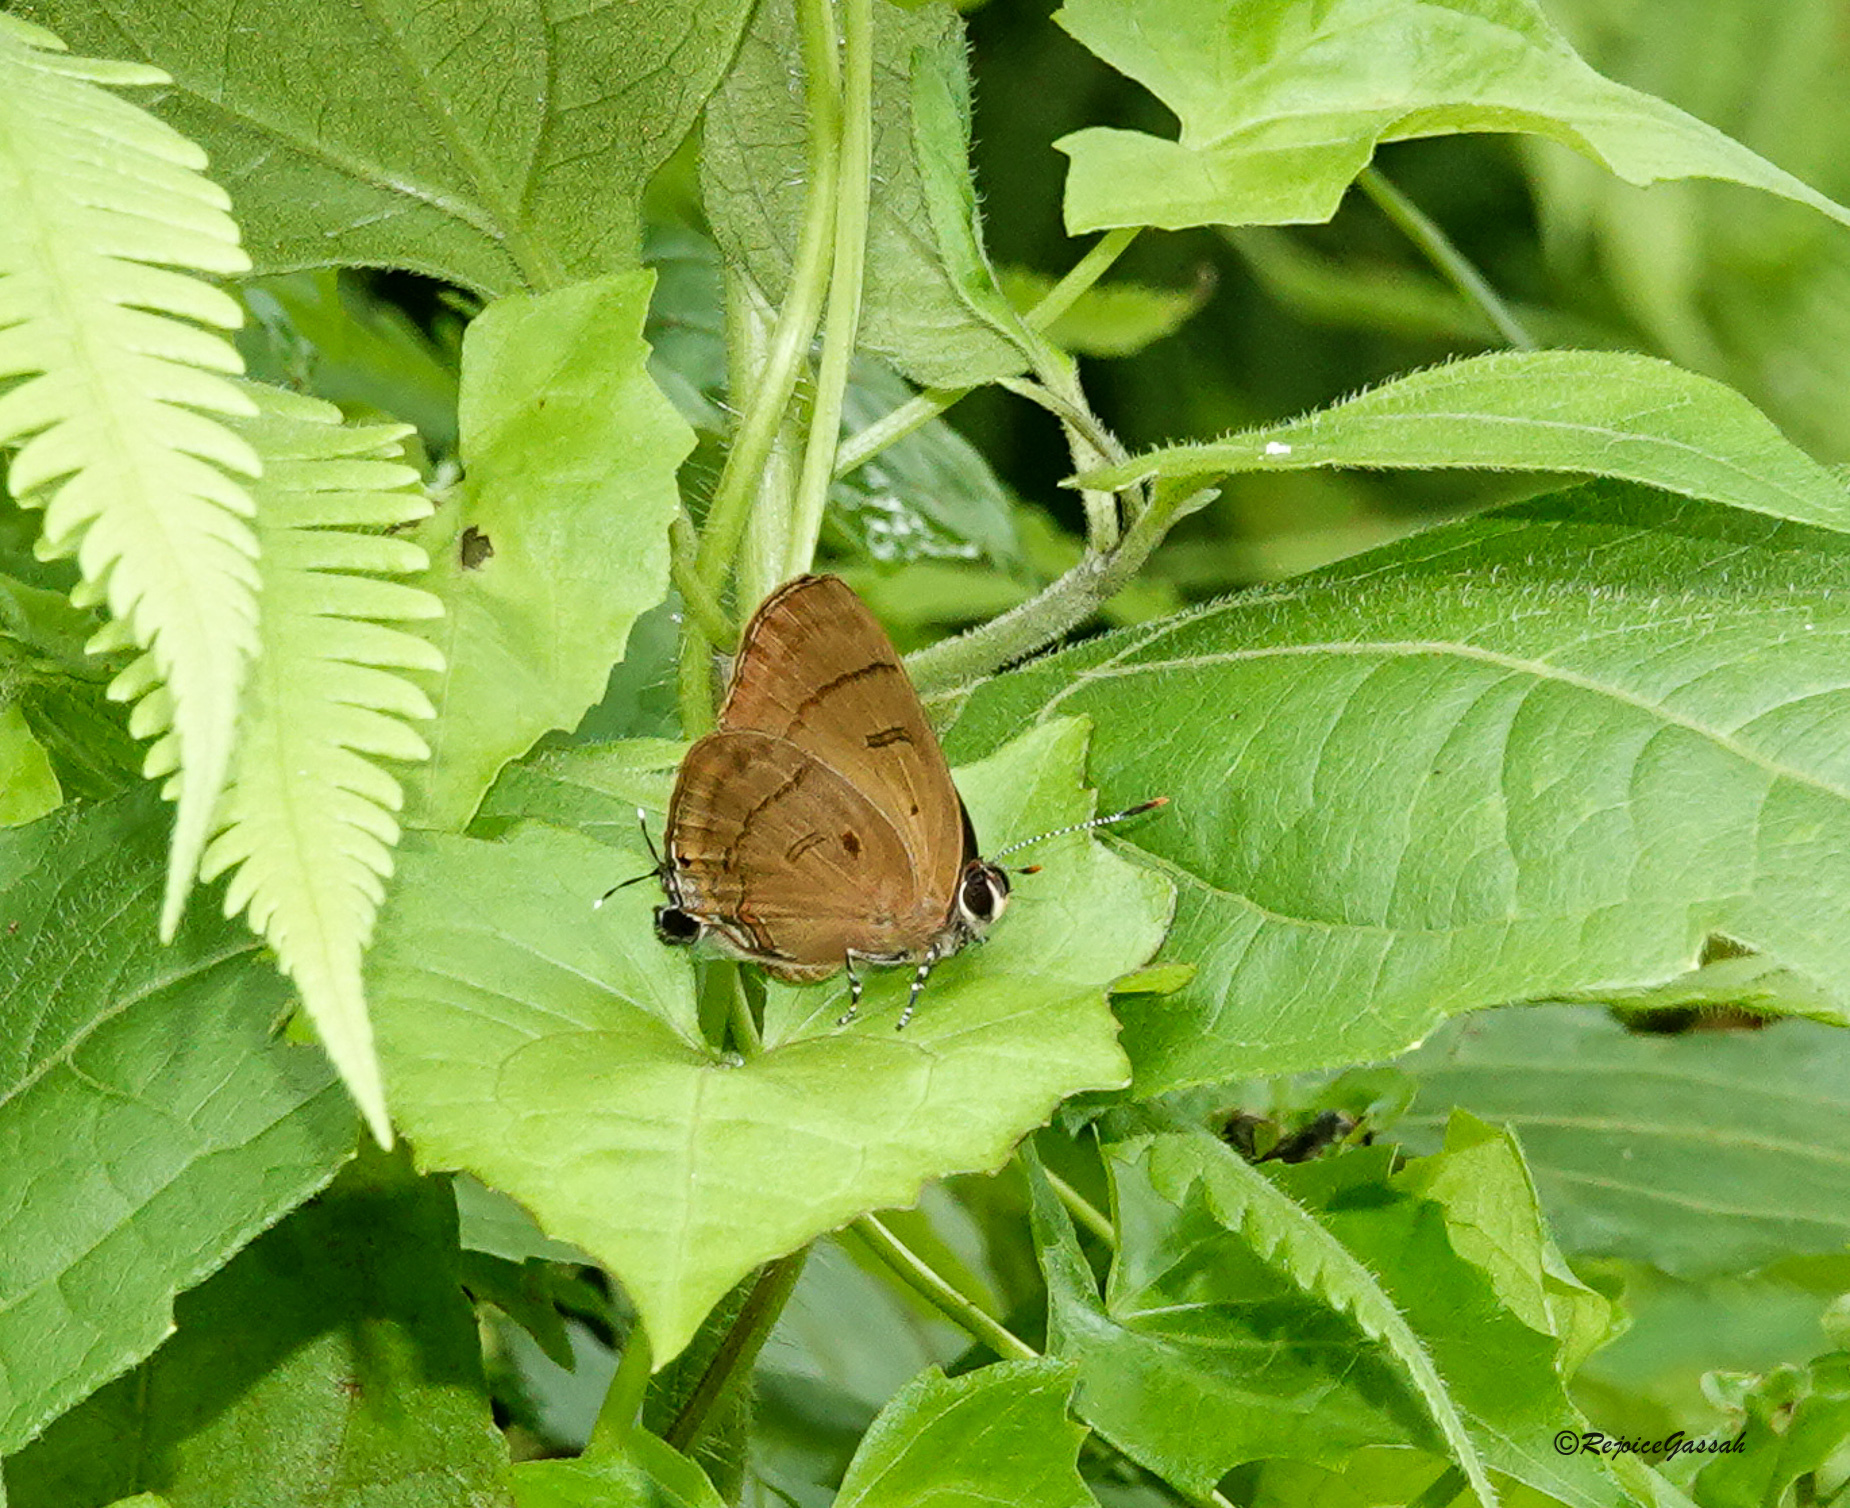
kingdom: Animalia
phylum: Arthropoda
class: Insecta
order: Lepidoptera
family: Lycaenidae
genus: Rapala
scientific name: Rapala pheretima
